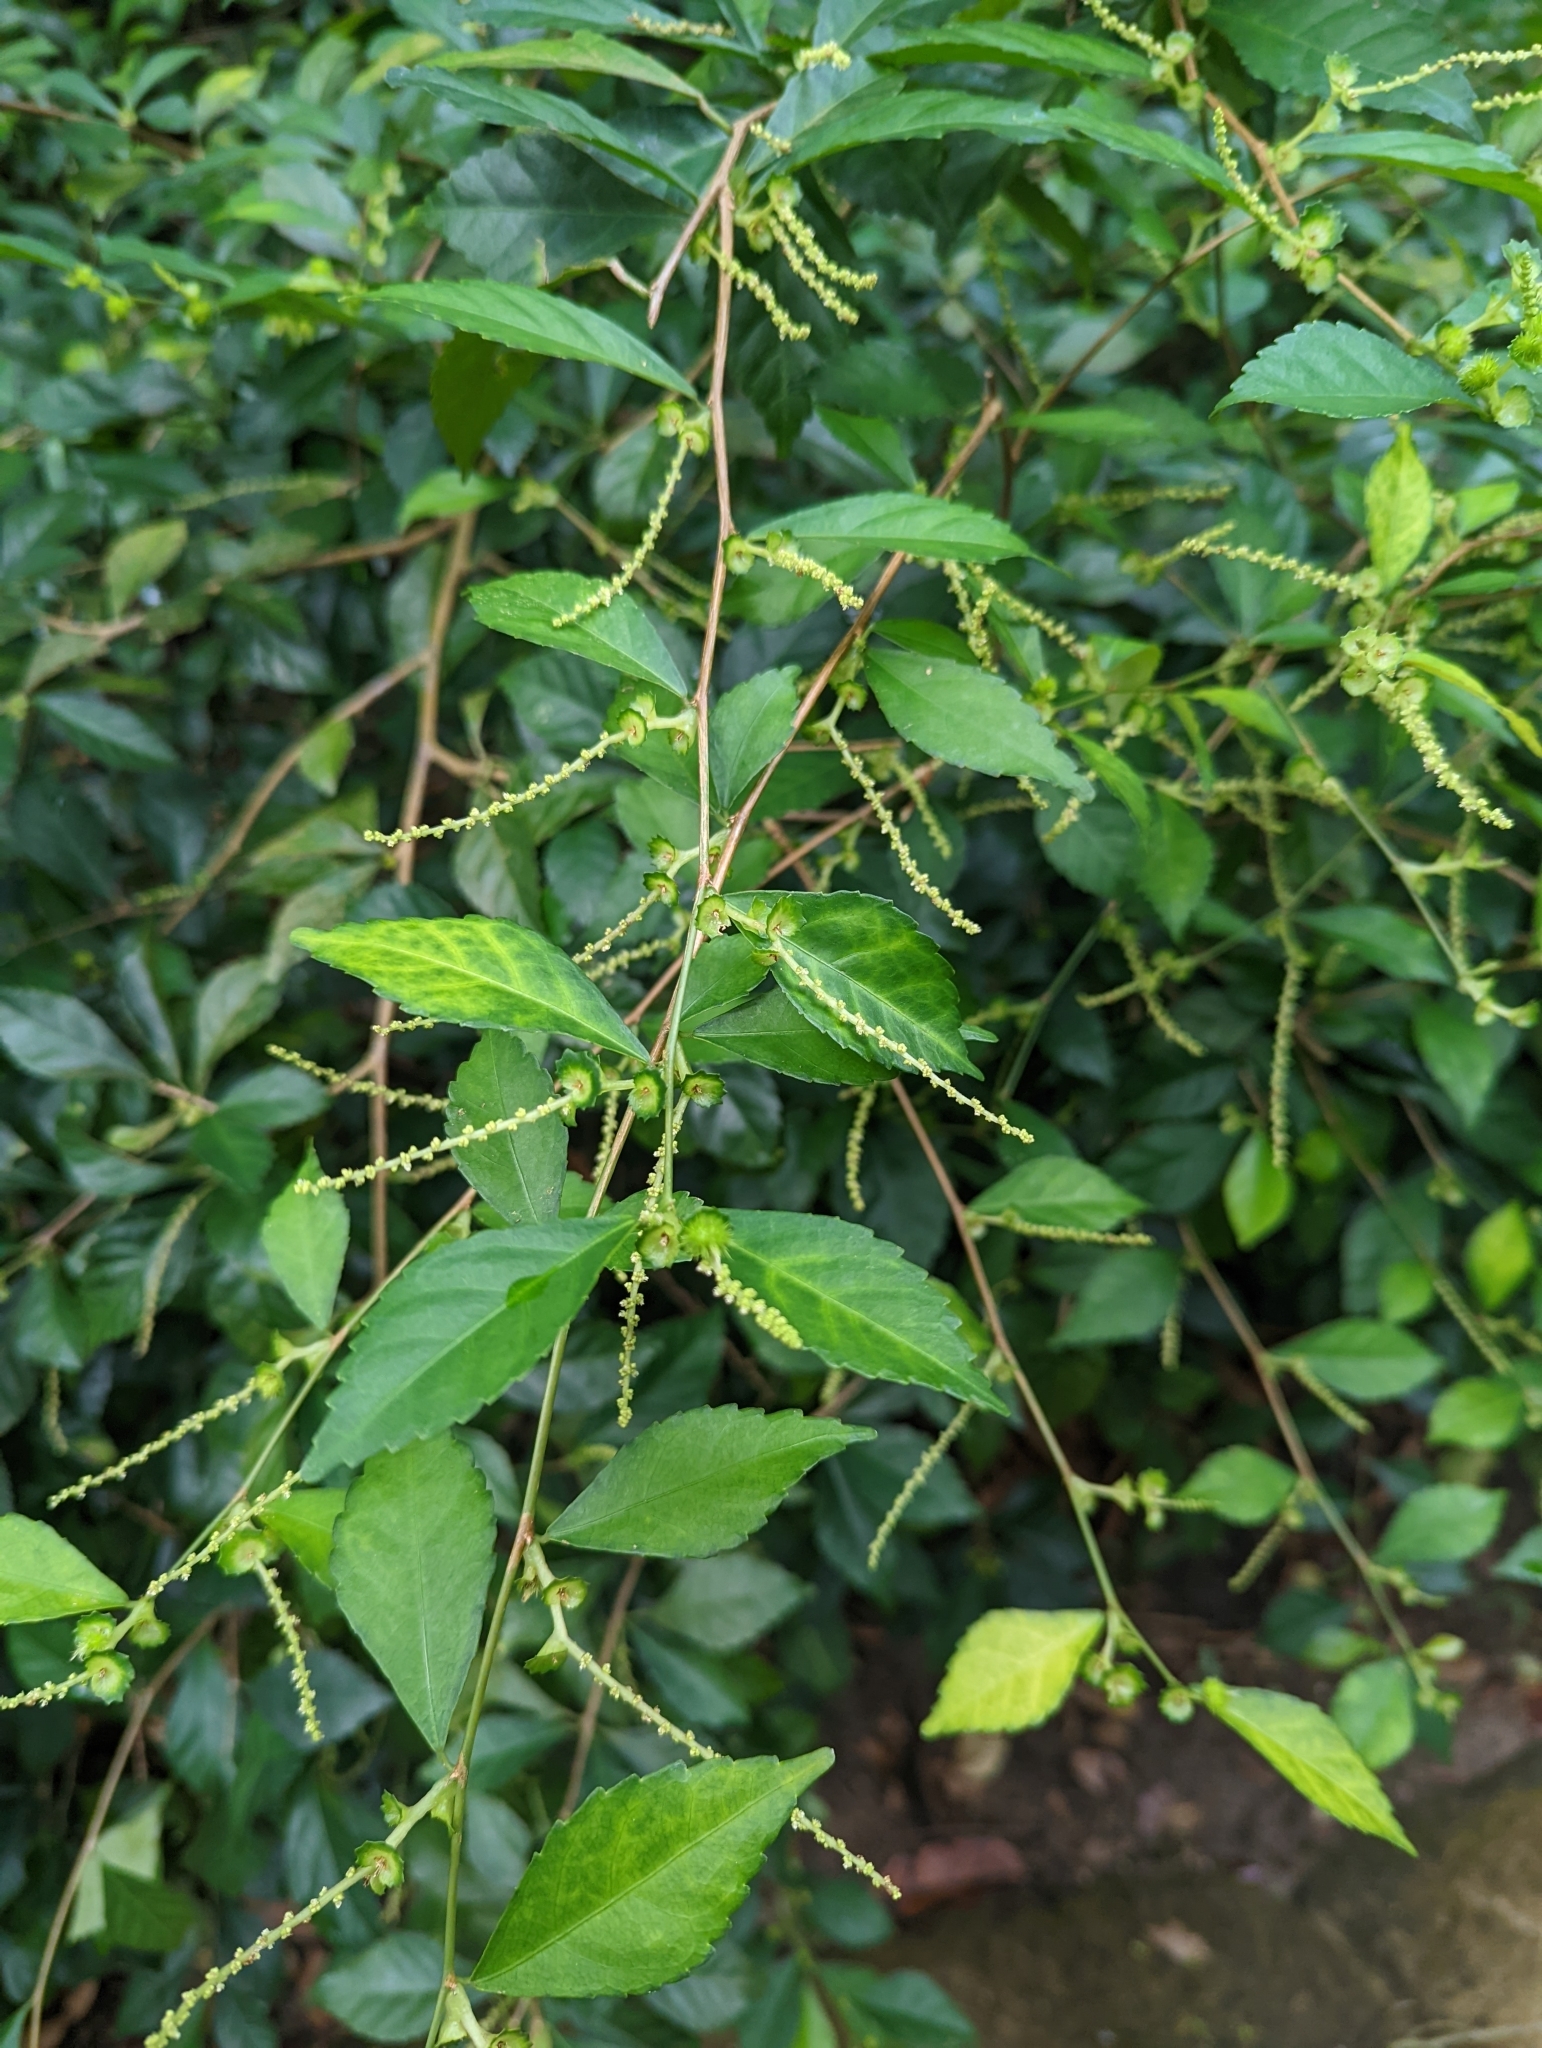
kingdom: Plantae
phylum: Tracheophyta
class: Magnoliopsida
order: Malpighiales
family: Euphorbiaceae
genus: Acalypha
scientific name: Acalypha siamensis
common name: Wild tea
